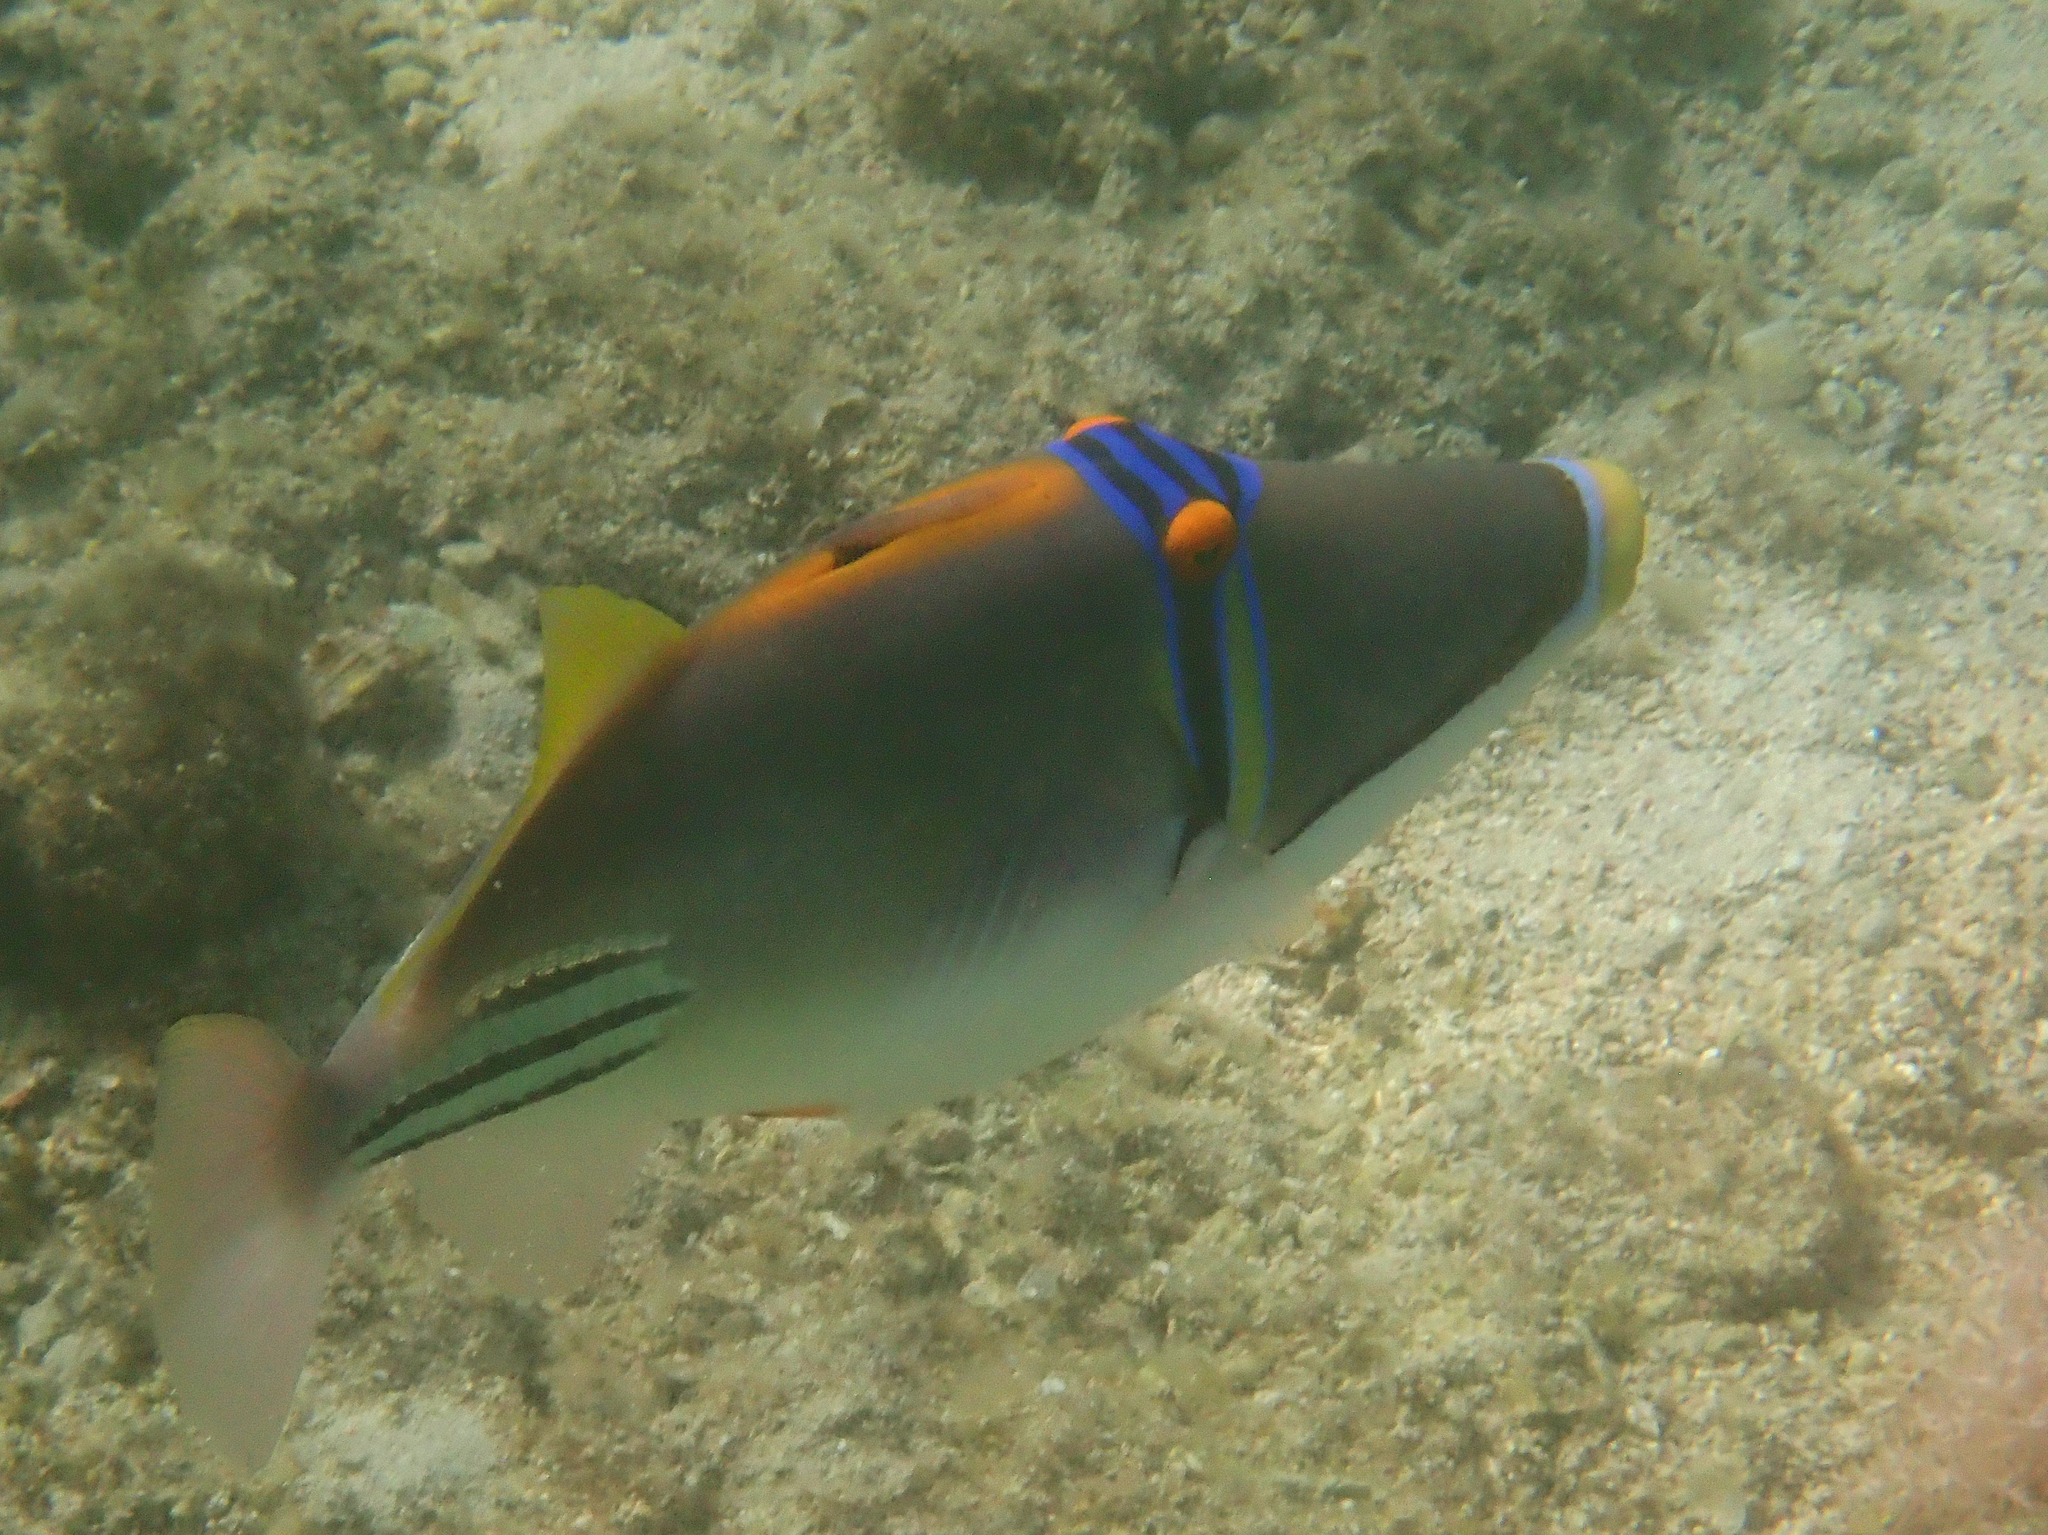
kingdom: Animalia
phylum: Chordata
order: Tetraodontiformes
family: Balistidae
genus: Rhinecanthus
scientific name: Rhinecanthus assasi
